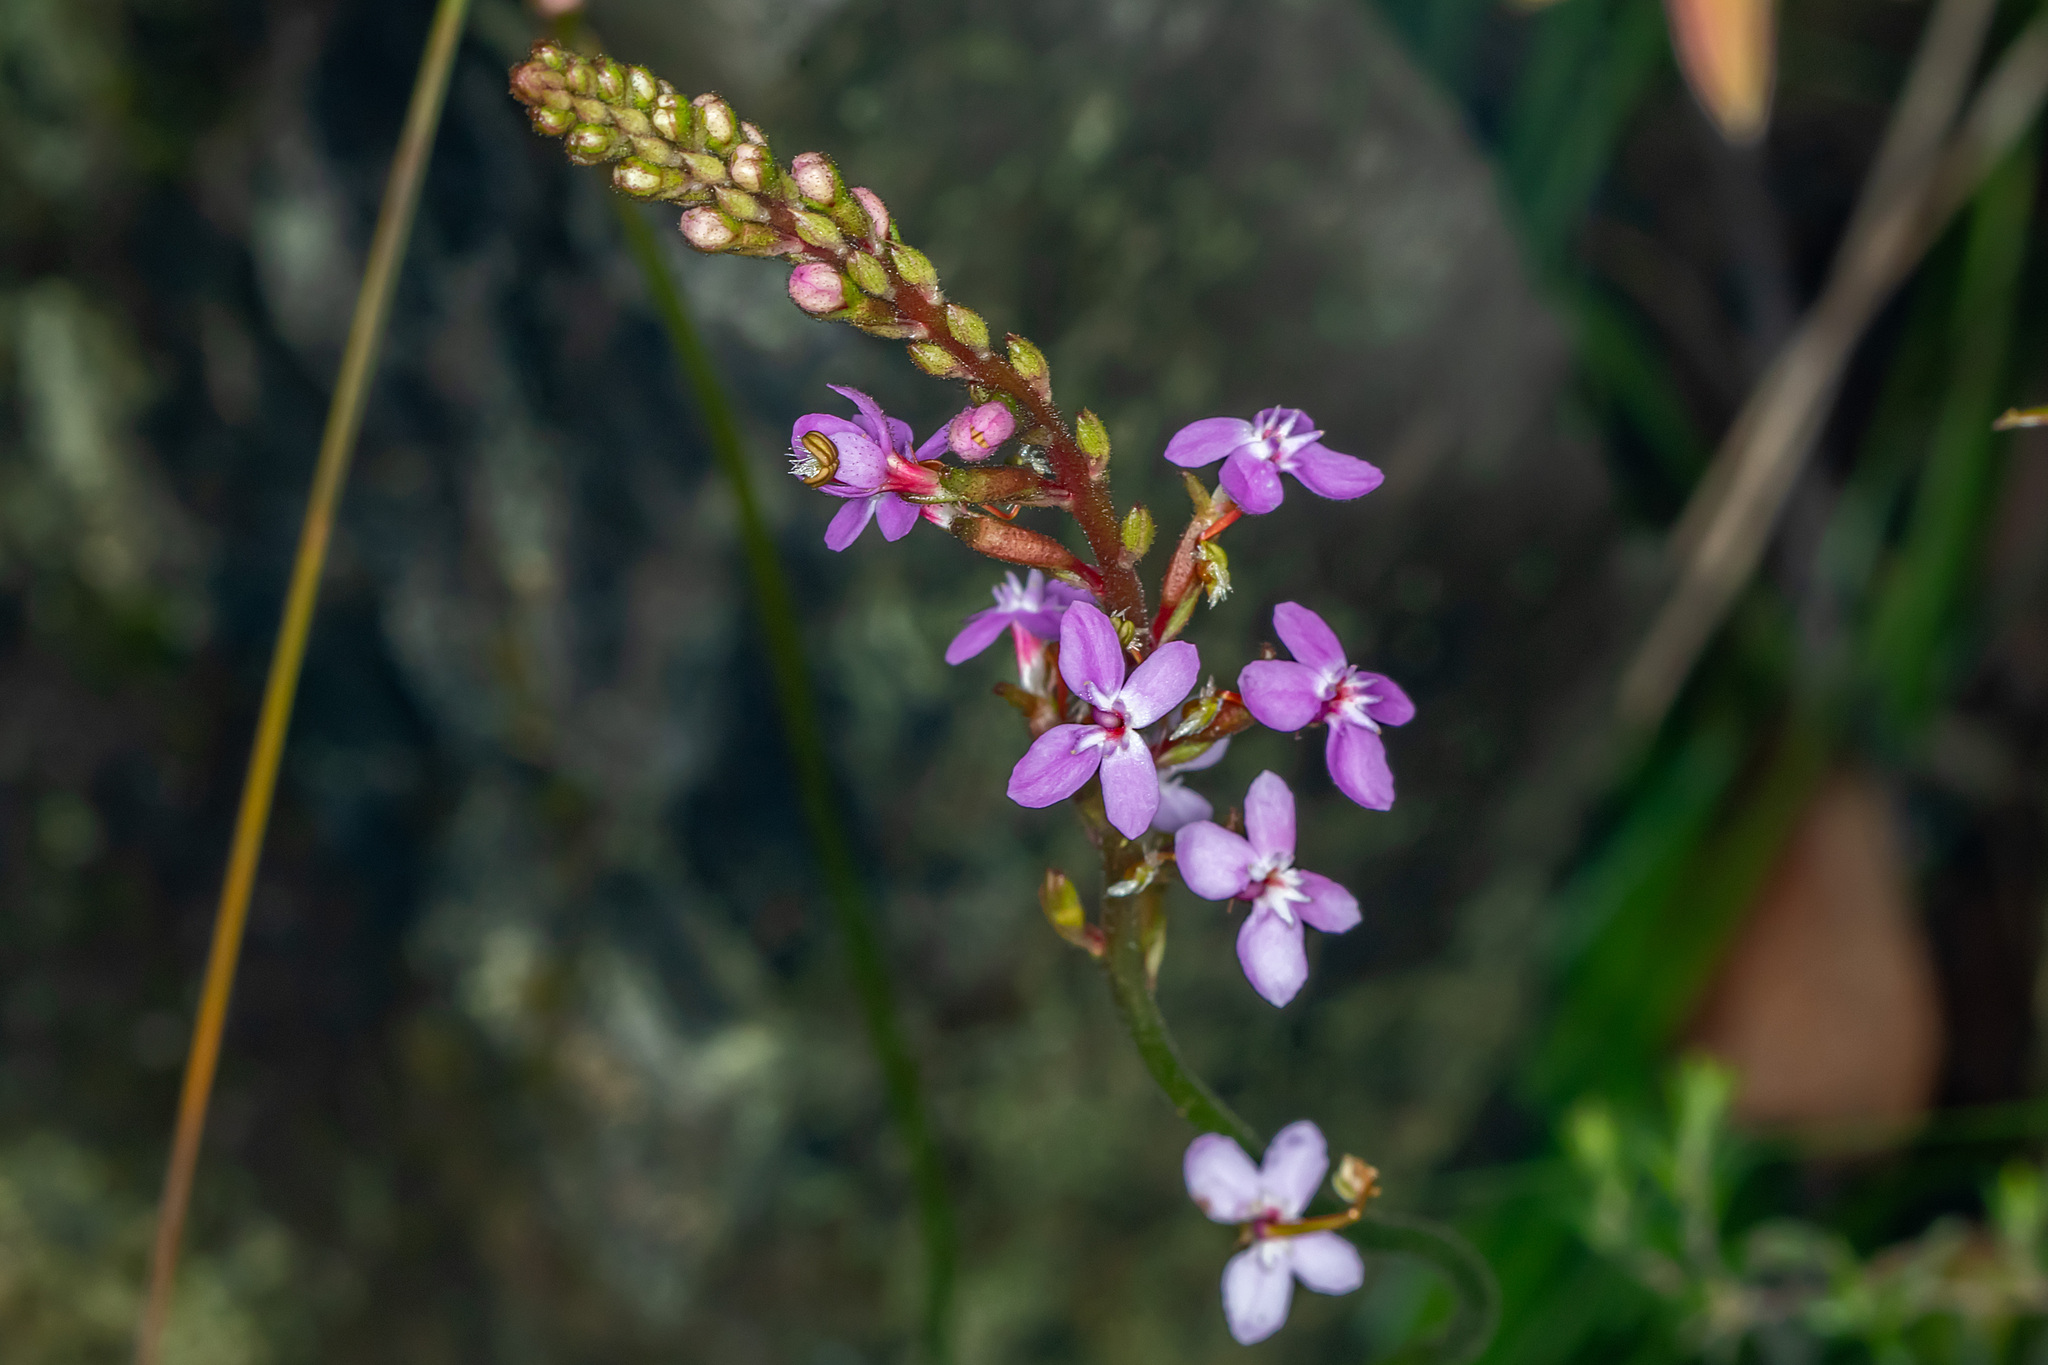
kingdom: Plantae
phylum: Tracheophyta
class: Magnoliopsida
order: Asterales
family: Stylidiaceae
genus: Stylidium
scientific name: Stylidium graminifolium
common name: Grass triggerplant
